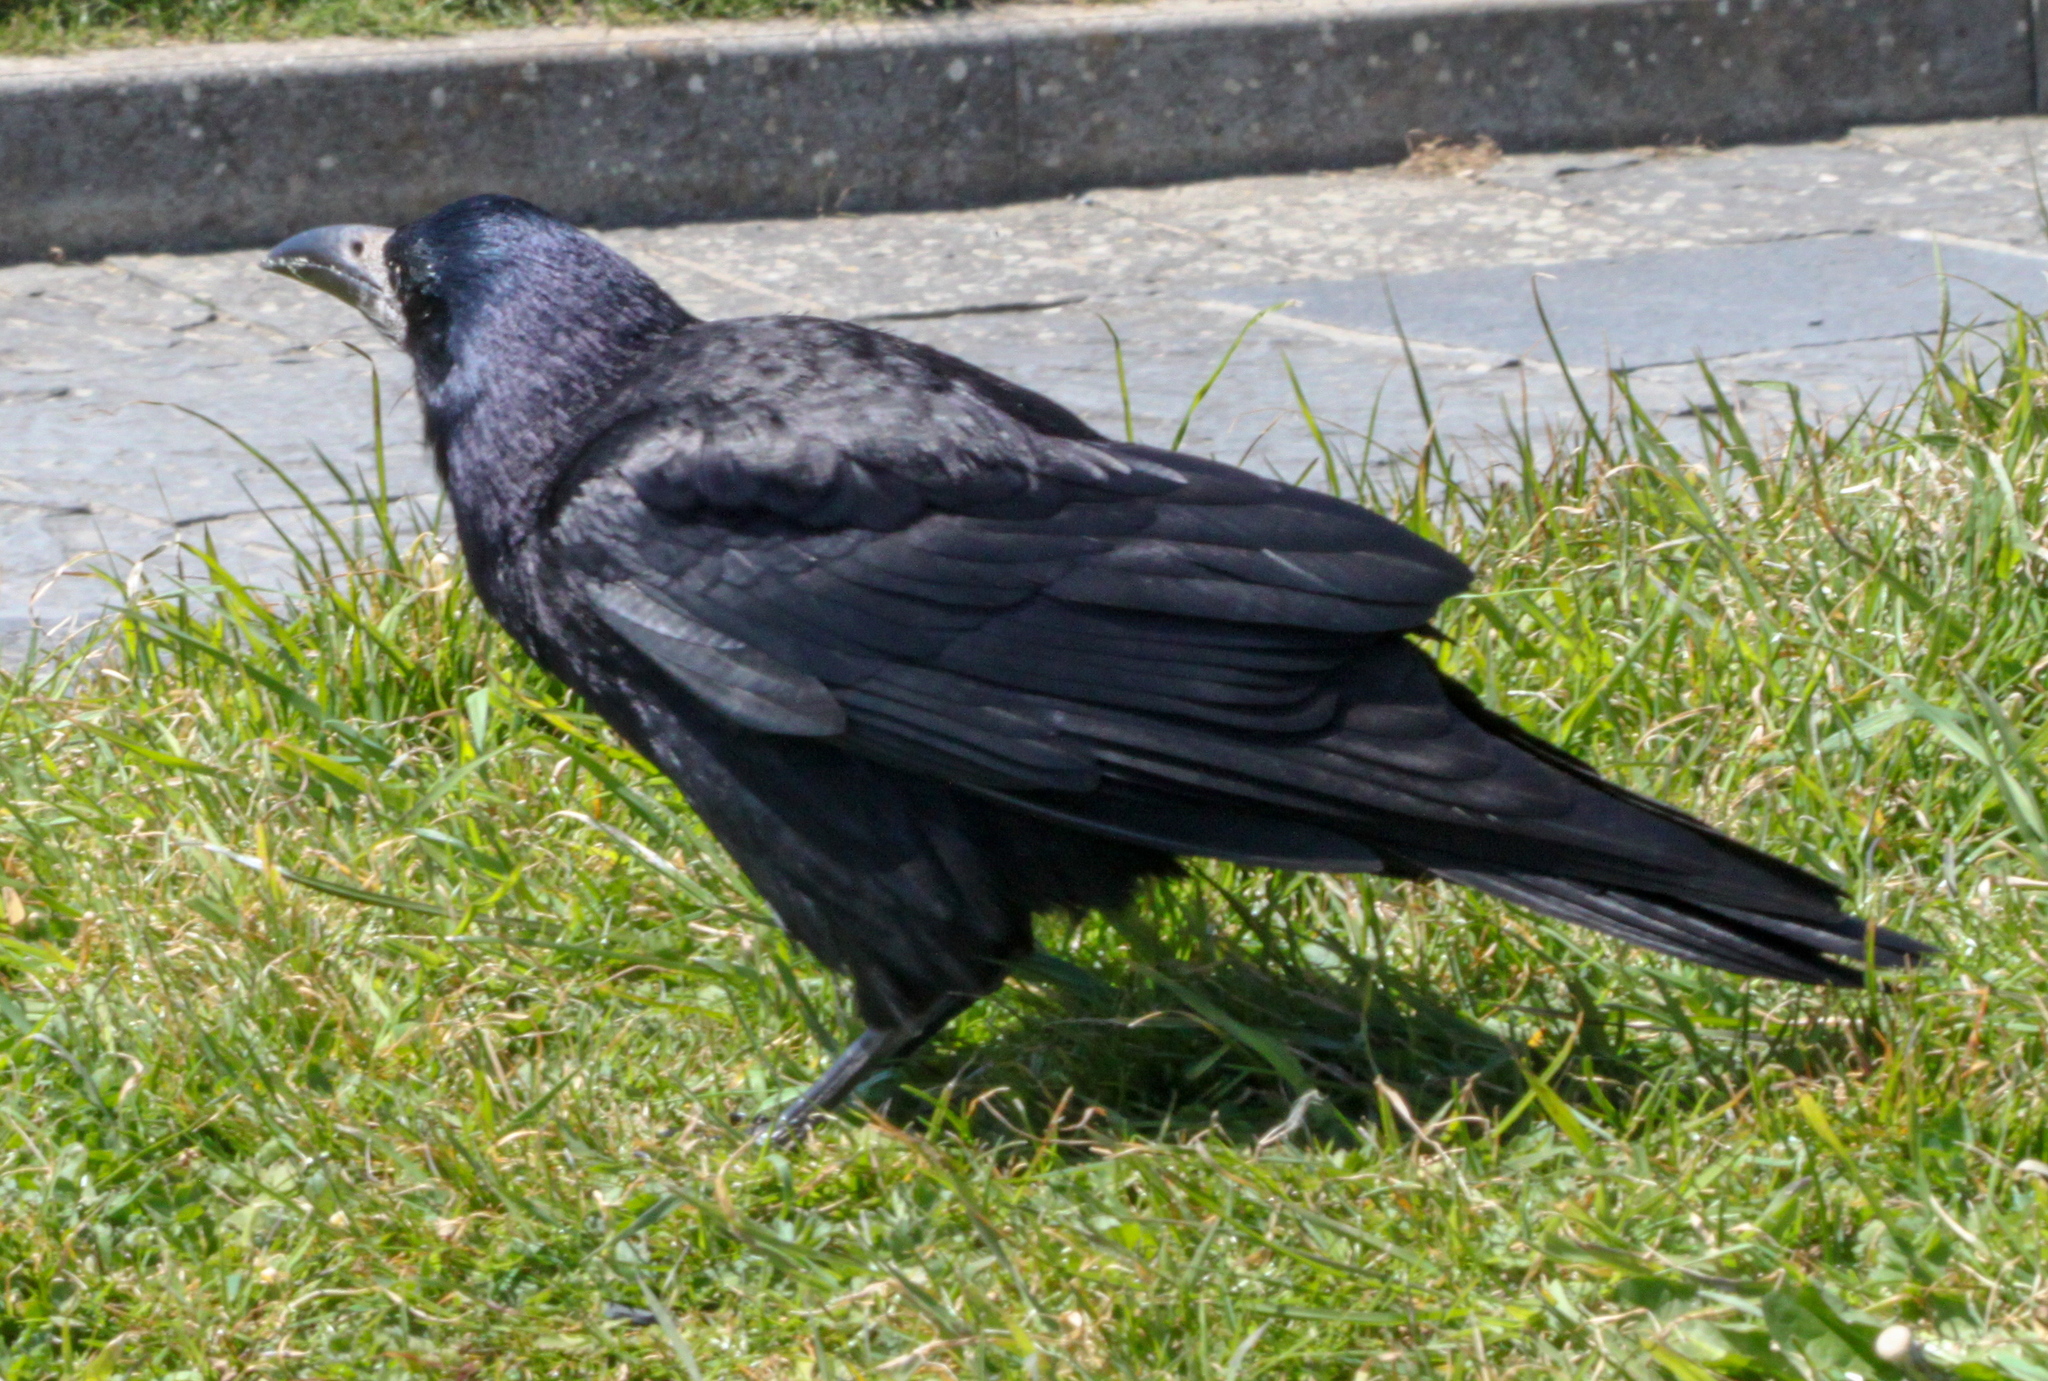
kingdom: Animalia
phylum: Chordata
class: Aves
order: Passeriformes
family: Corvidae
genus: Corvus
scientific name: Corvus frugilegus
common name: Rook
